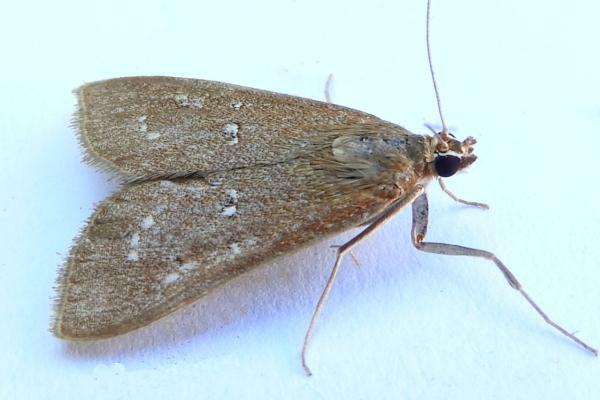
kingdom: Animalia
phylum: Arthropoda
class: Insecta
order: Lepidoptera
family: Crambidae
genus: Diastictis
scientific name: Diastictis ventralis
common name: White-spotted brown
